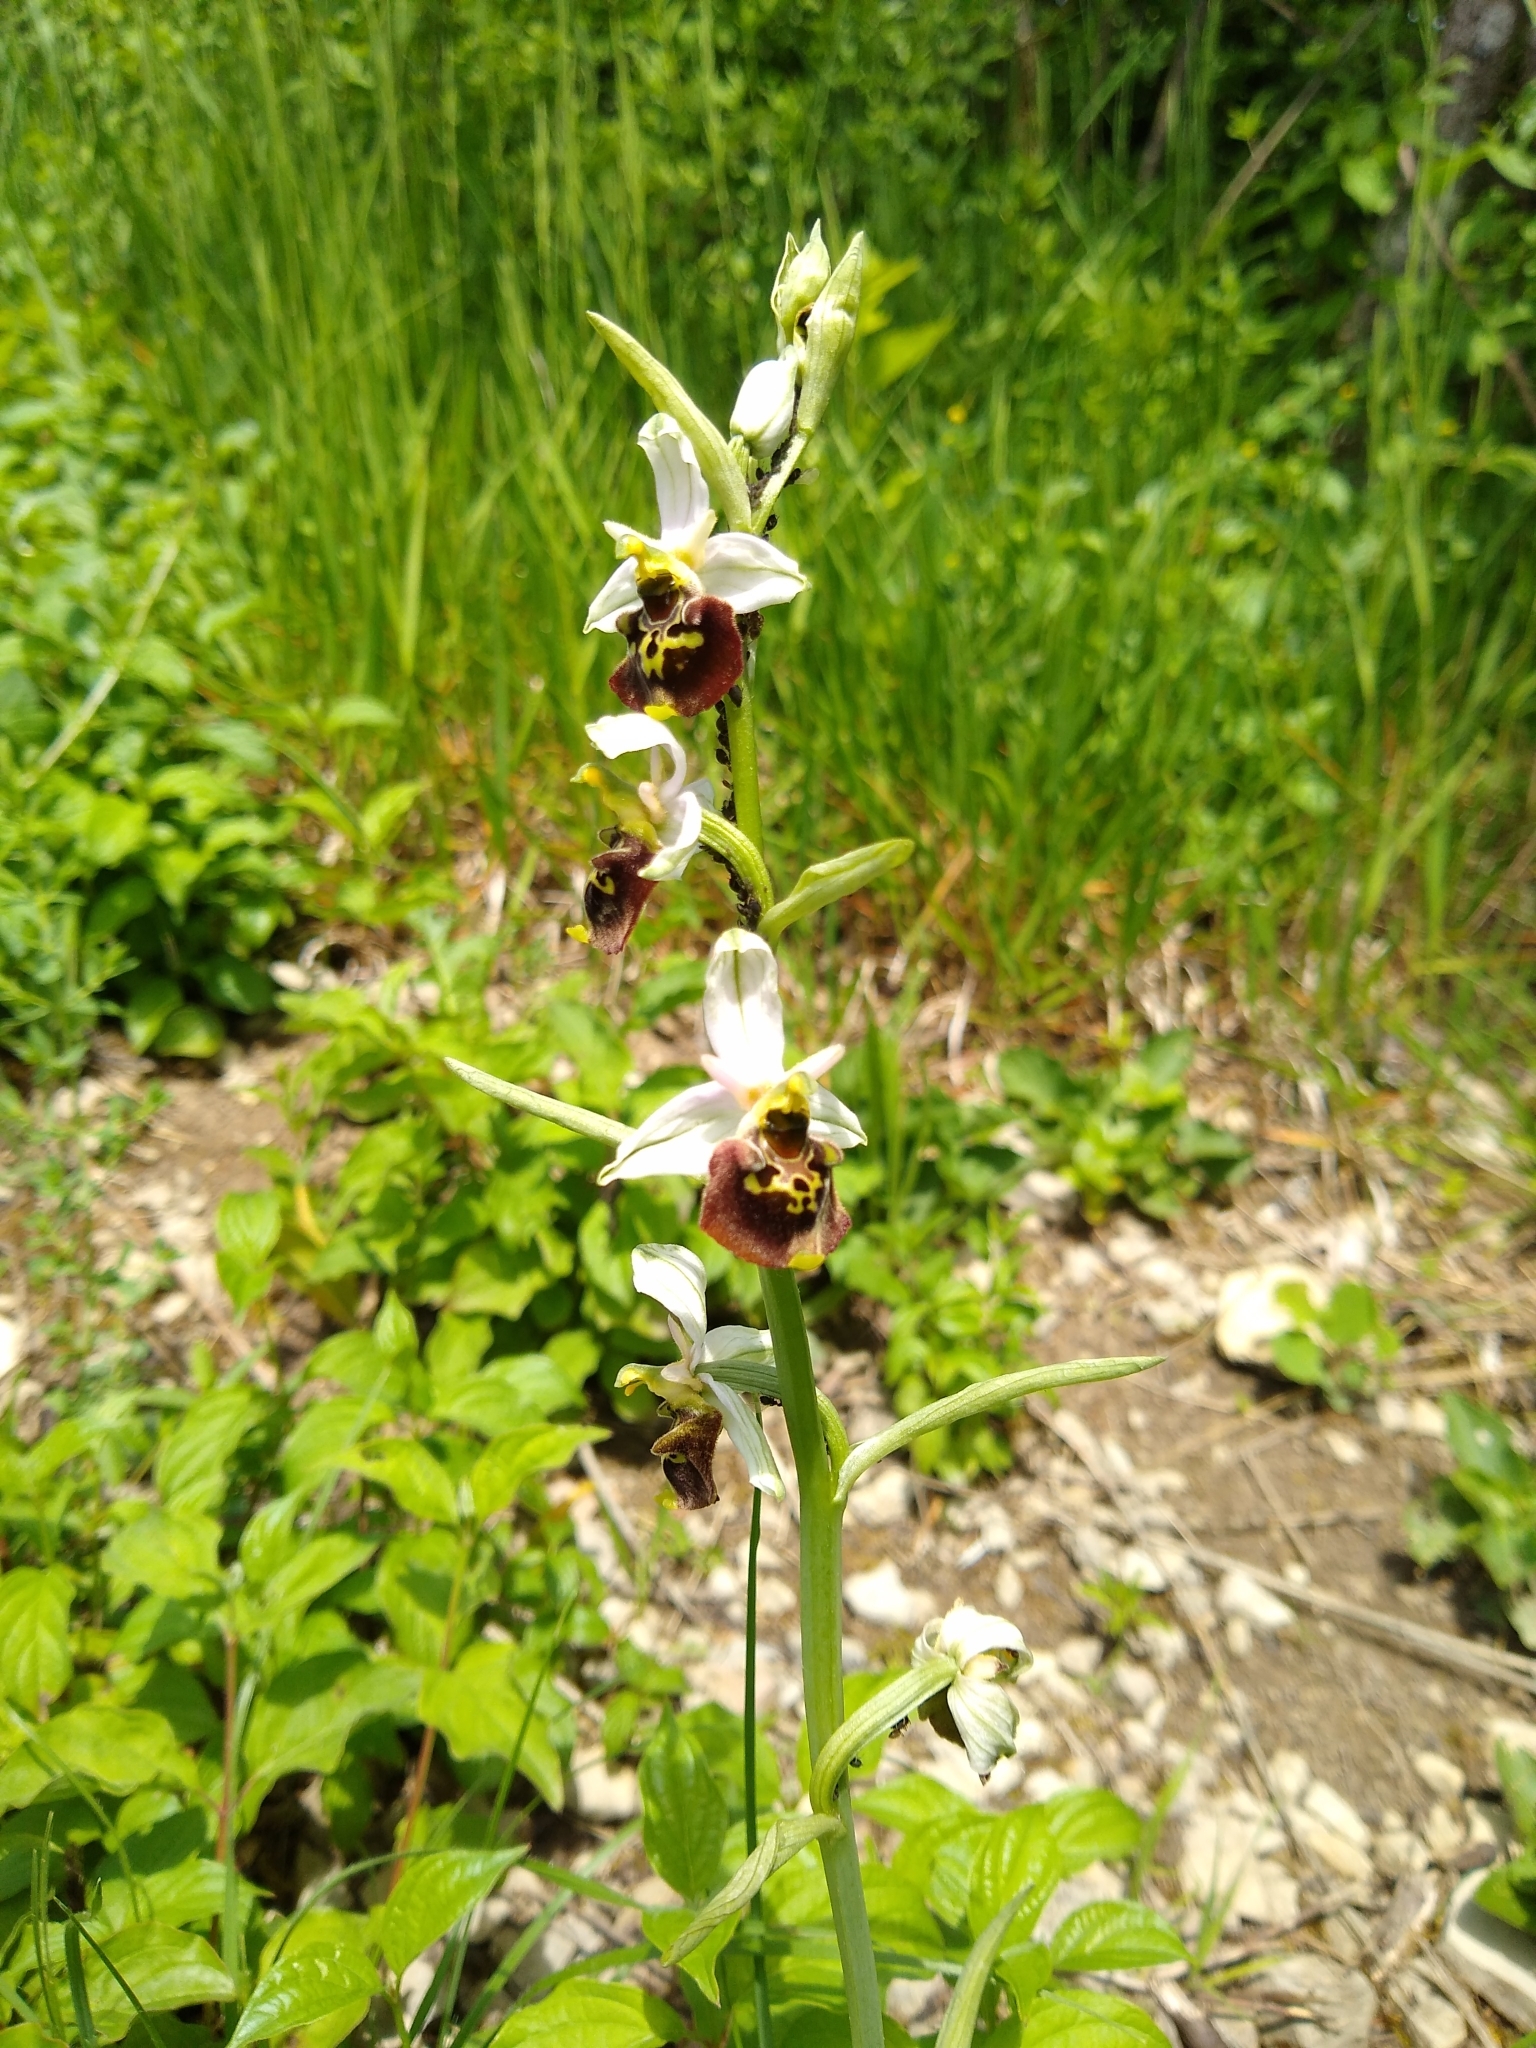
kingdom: Plantae
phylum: Tracheophyta
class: Liliopsida
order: Asparagales
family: Orchidaceae
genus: Ophrys
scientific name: Ophrys holosericea
